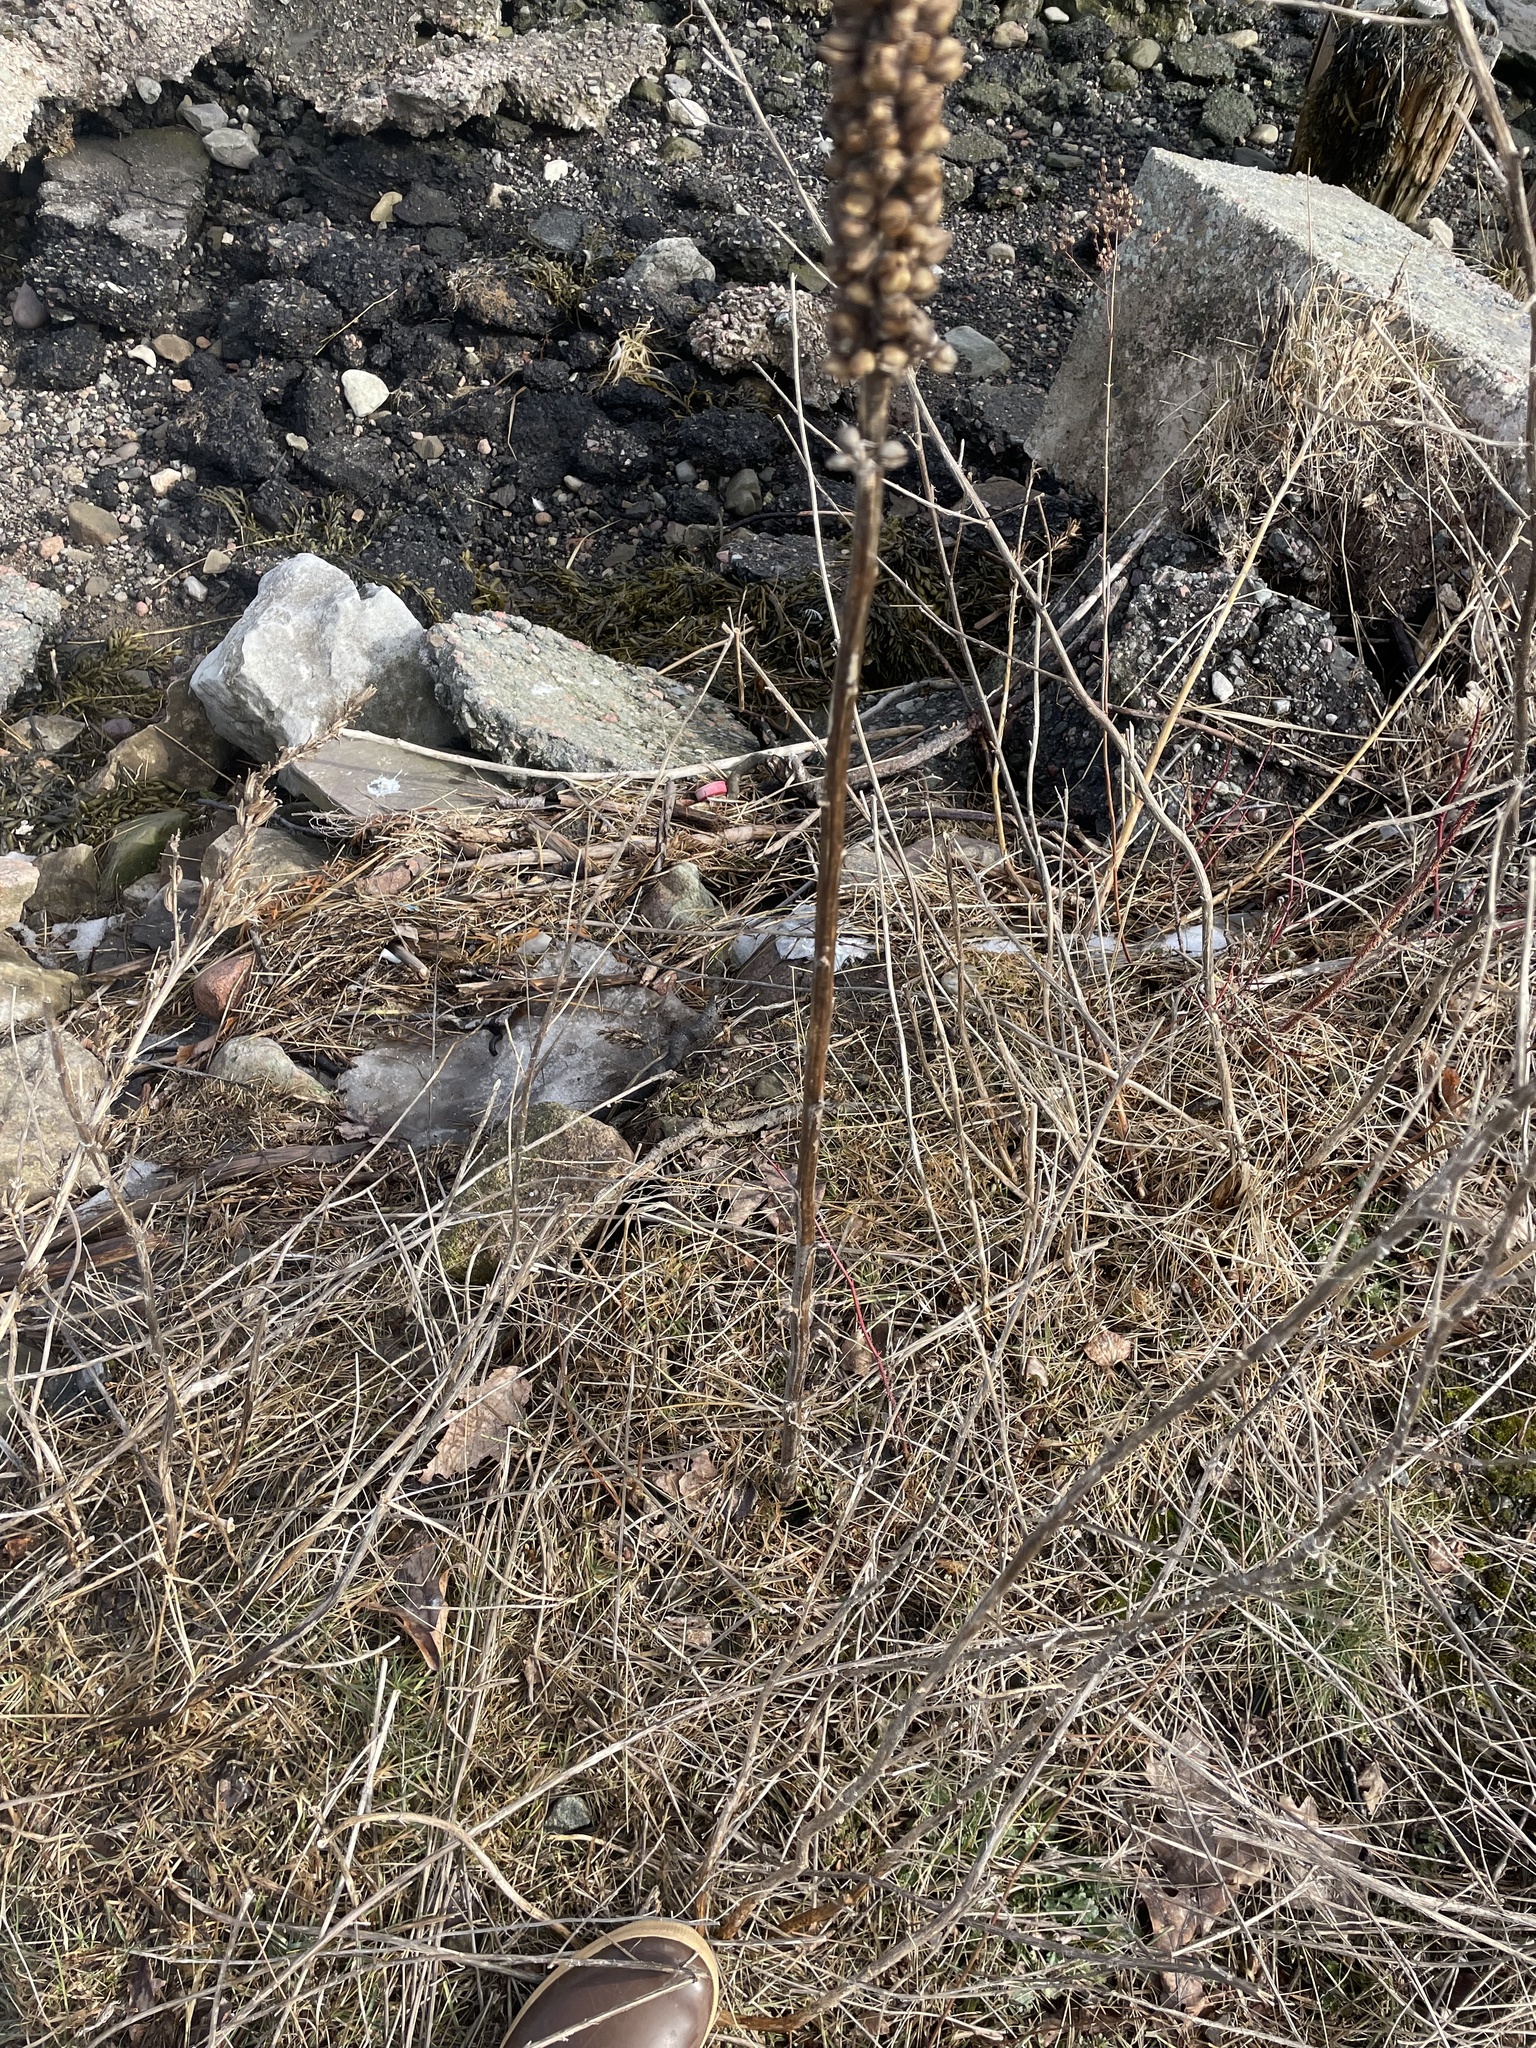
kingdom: Plantae
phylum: Tracheophyta
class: Magnoliopsida
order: Lamiales
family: Scrophulariaceae
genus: Verbascum
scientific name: Verbascum thapsus
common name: Common mullein
